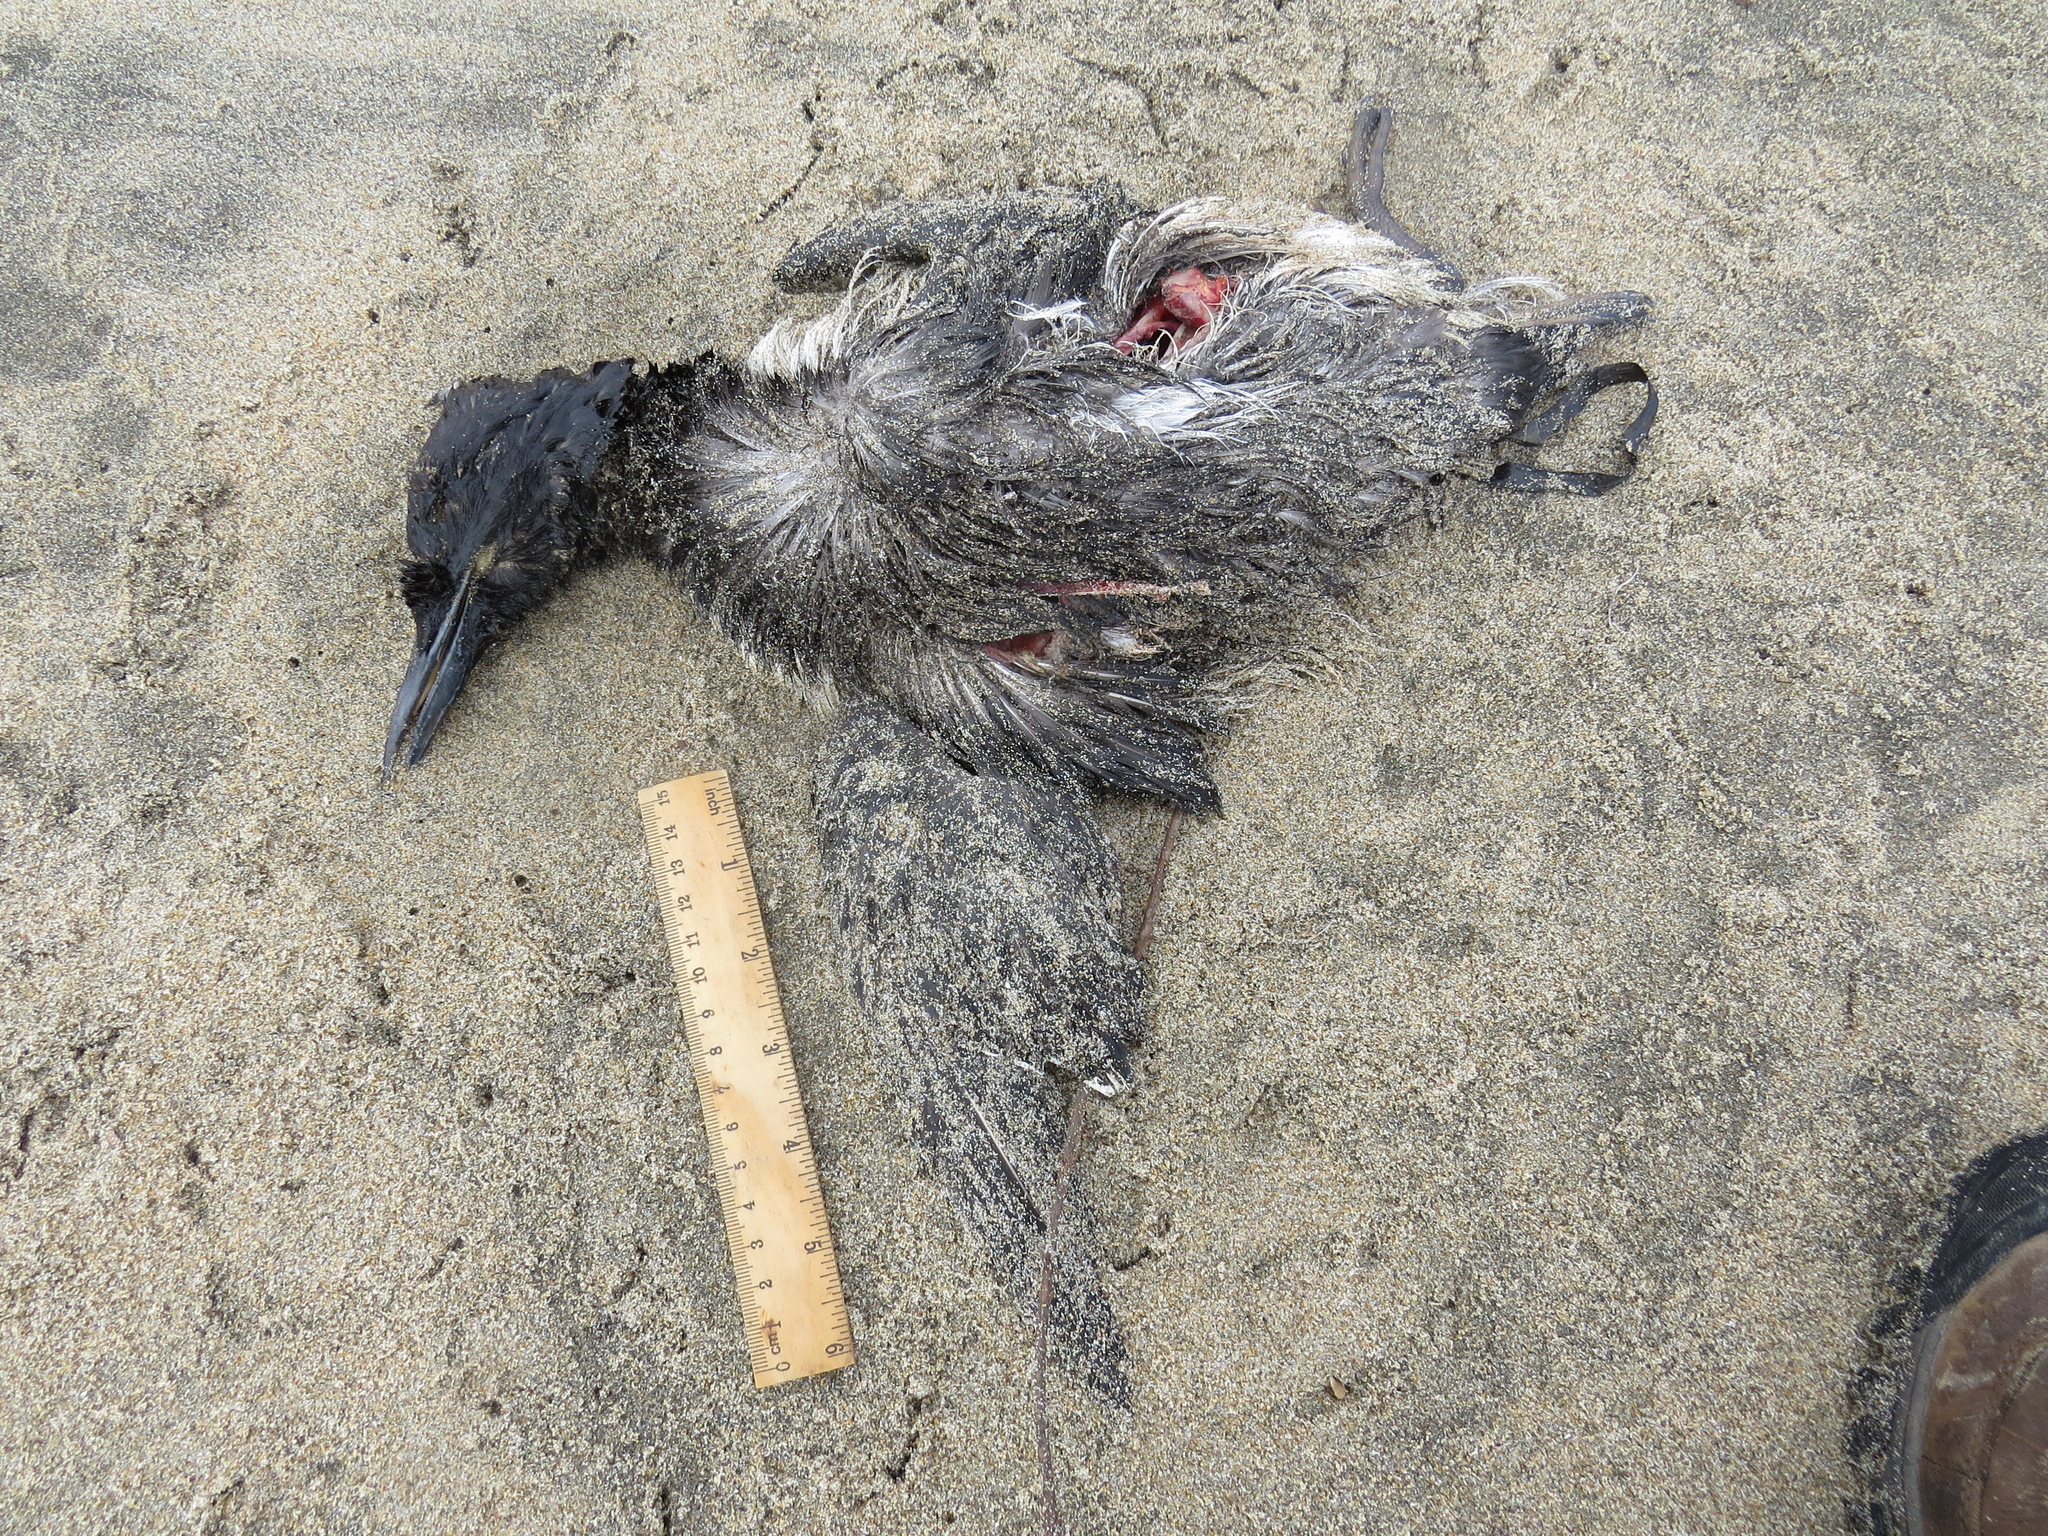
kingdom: Animalia
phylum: Chordata
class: Aves
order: Charadriiformes
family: Alcidae
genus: Uria
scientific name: Uria aalge
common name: Common murre
